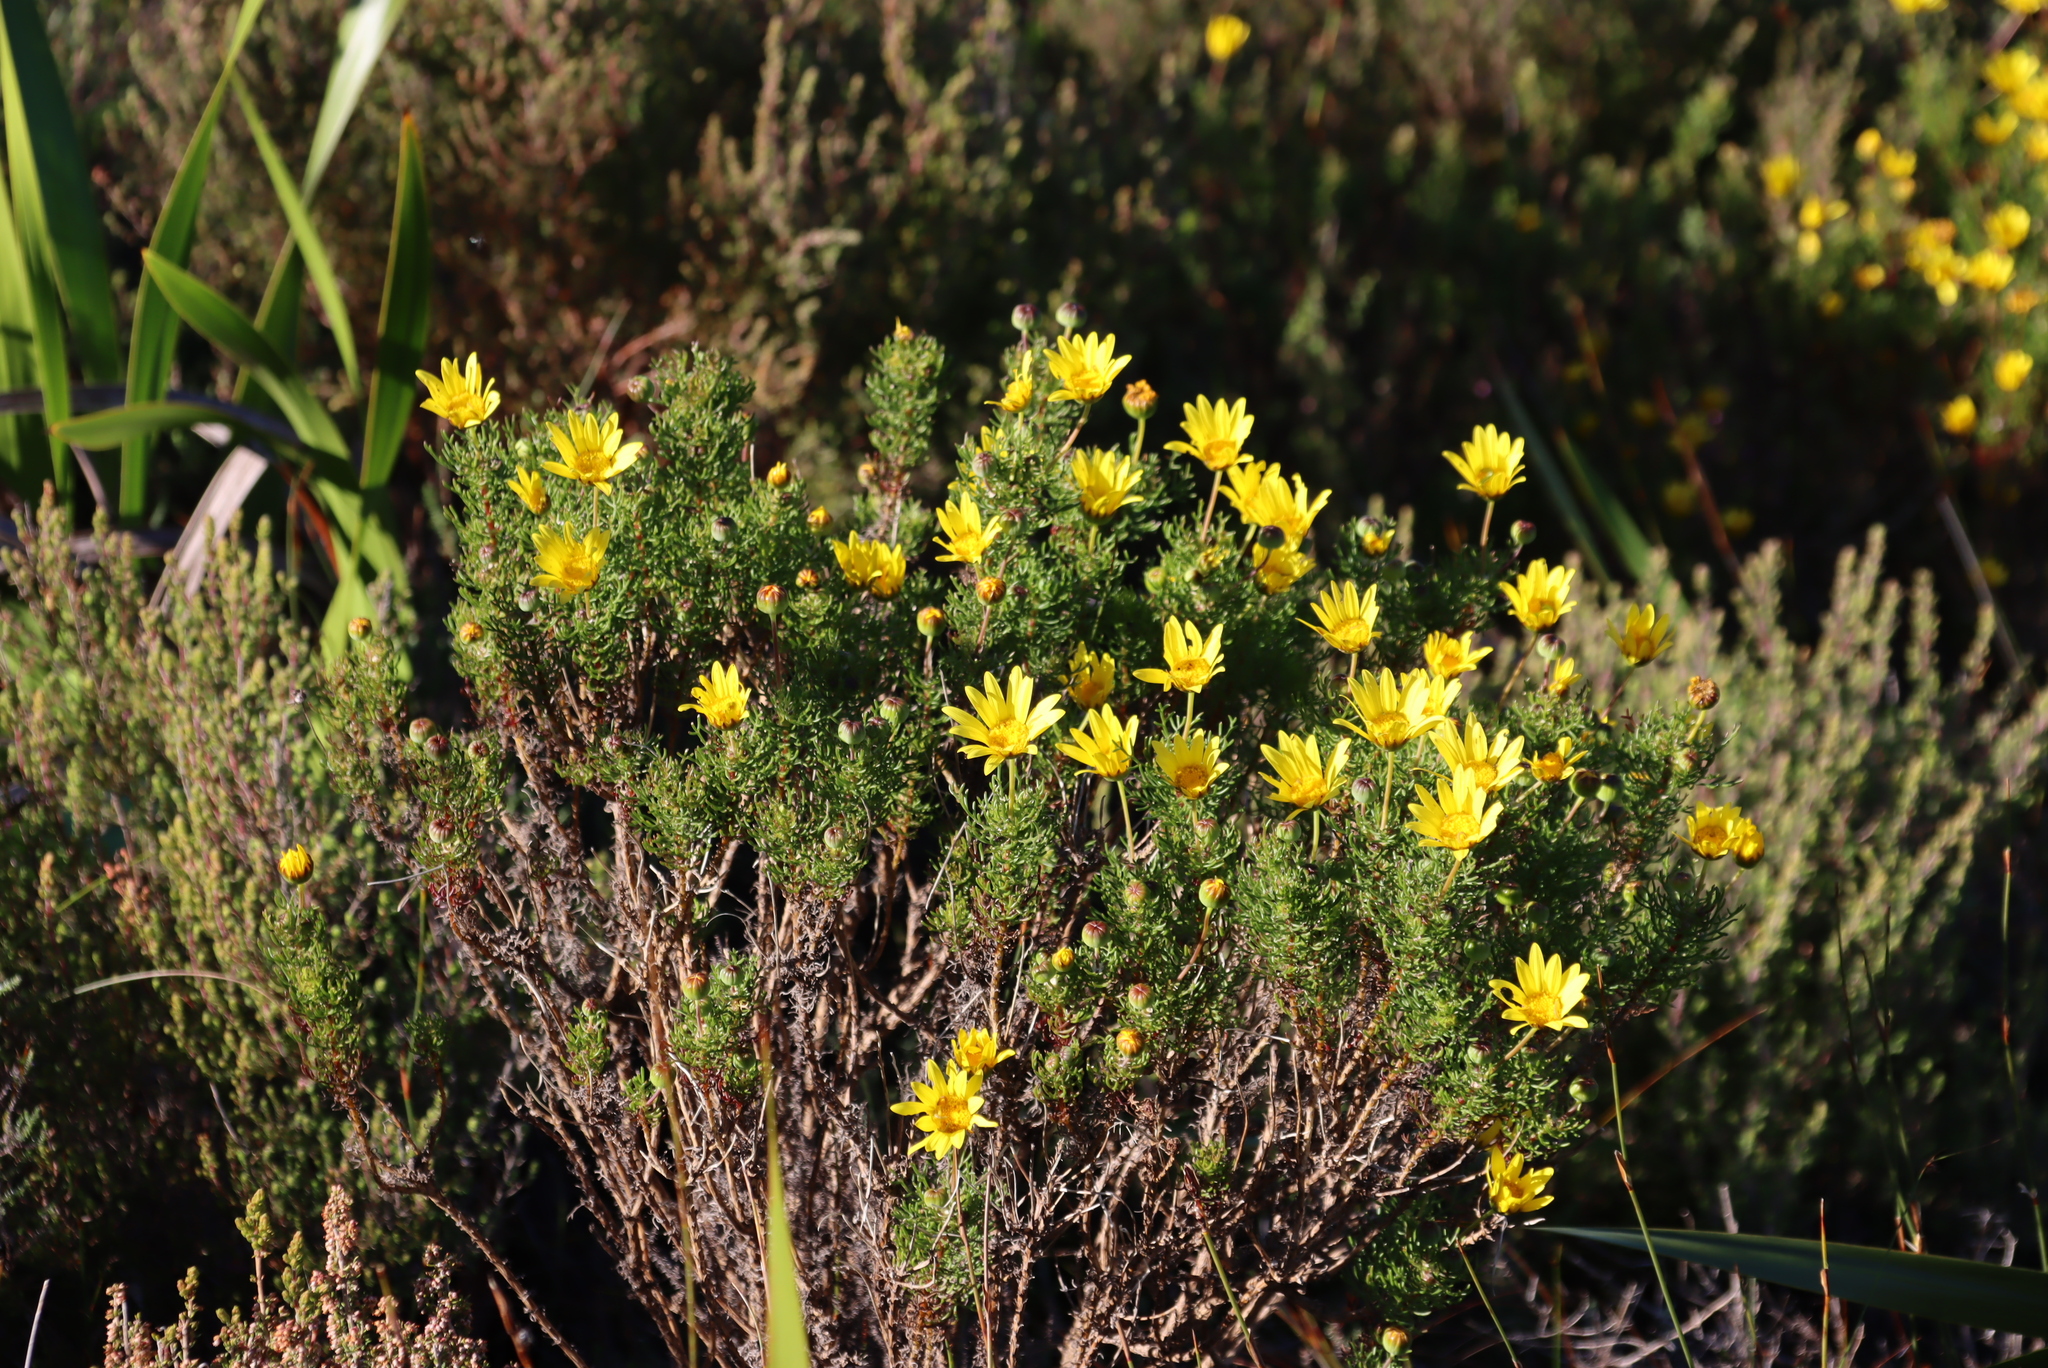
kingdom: Plantae
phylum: Tracheophyta
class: Magnoliopsida
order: Asterales
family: Asteraceae
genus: Euryops
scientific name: Euryops abrotanifolius
